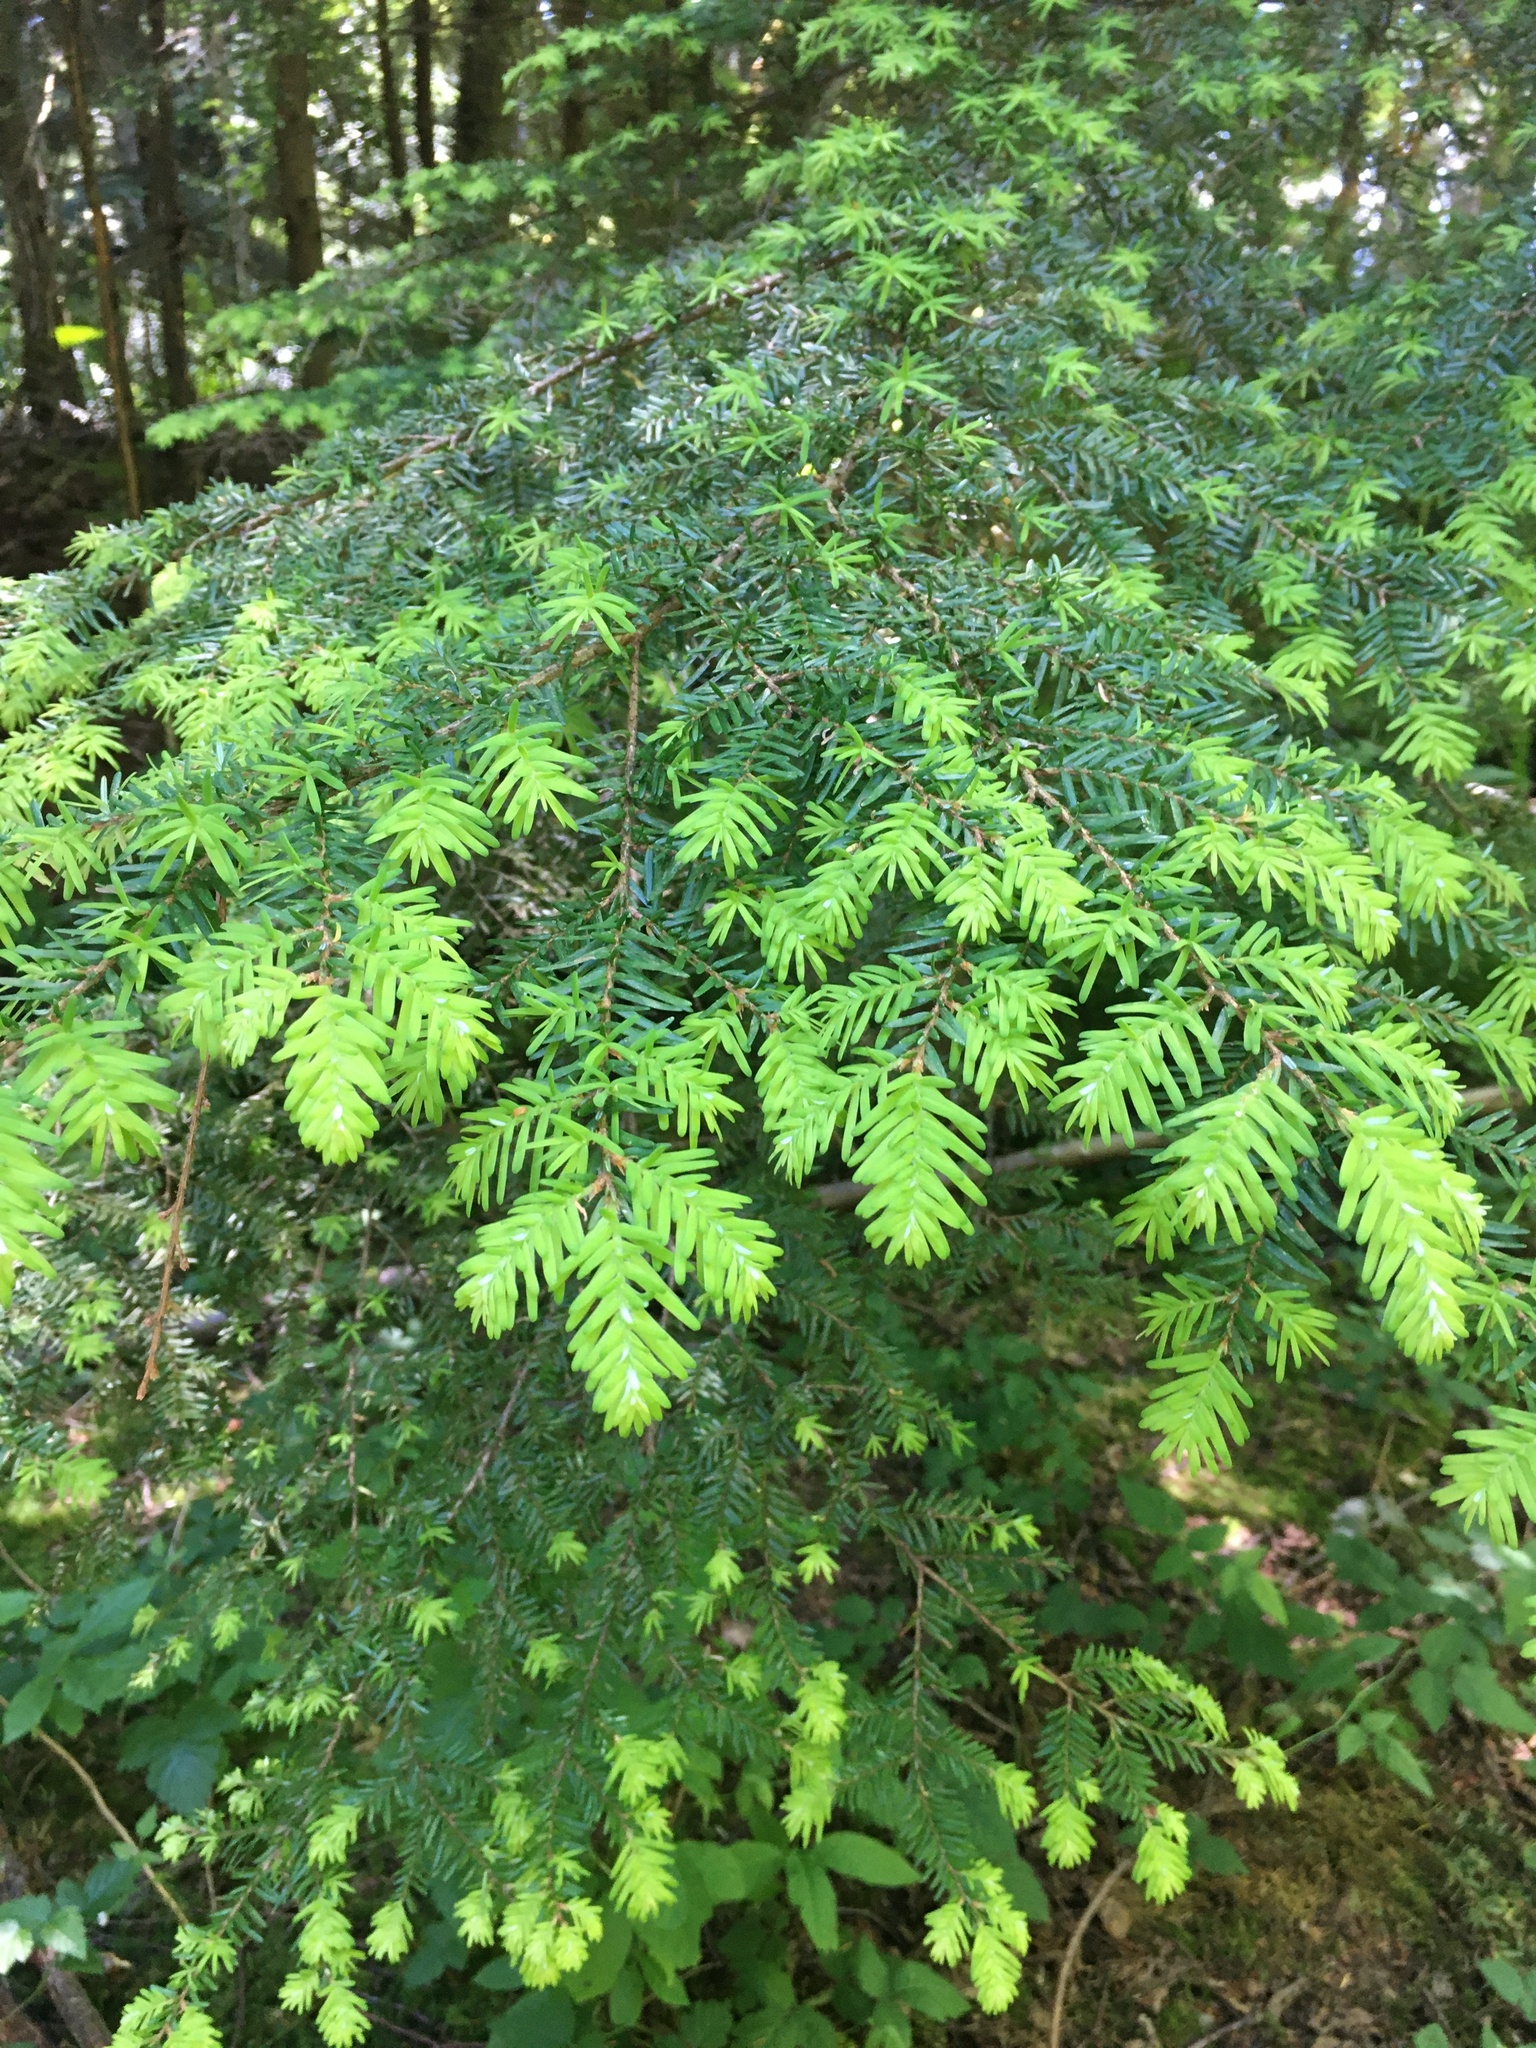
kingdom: Plantae
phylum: Tracheophyta
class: Pinopsida
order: Pinales
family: Pinaceae
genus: Tsuga
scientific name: Tsuga heterophylla
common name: Western hemlock
